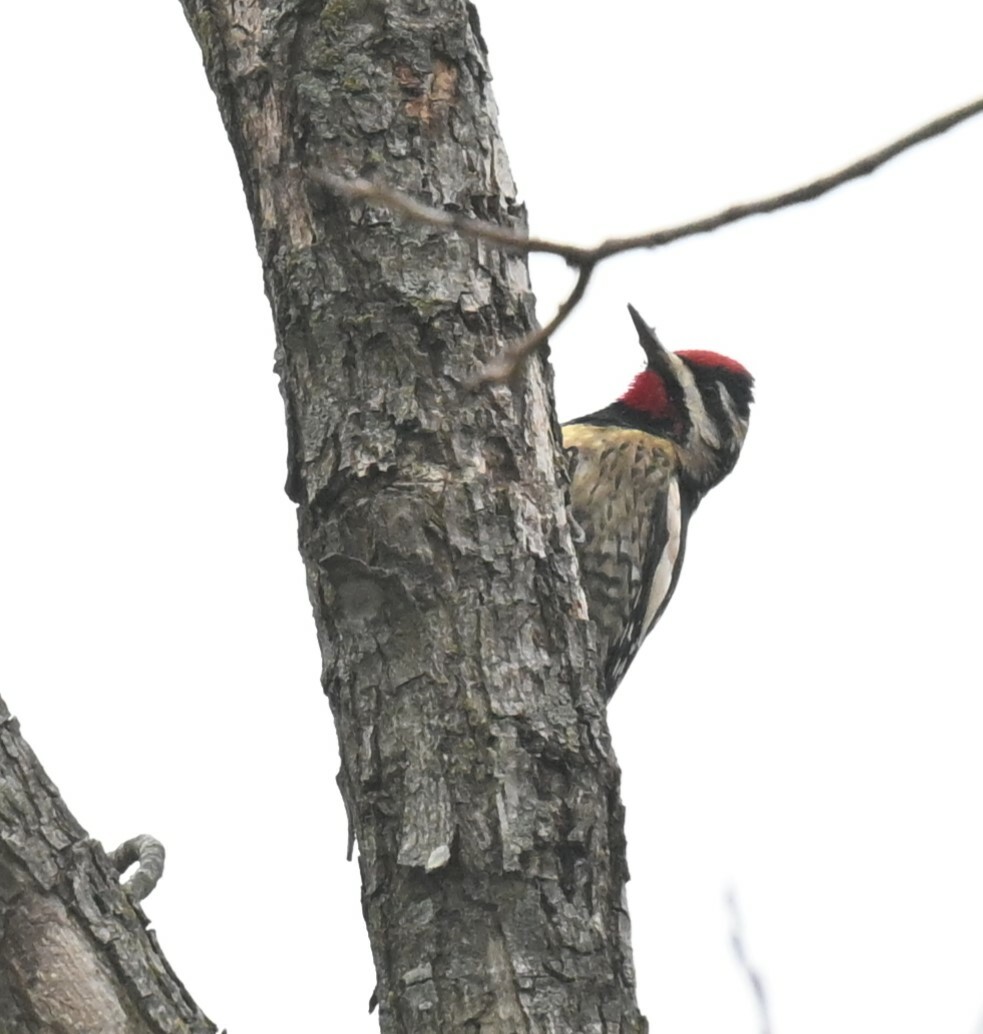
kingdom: Animalia
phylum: Chordata
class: Aves
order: Piciformes
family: Picidae
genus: Sphyrapicus
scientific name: Sphyrapicus varius
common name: Yellow-bellied sapsucker
